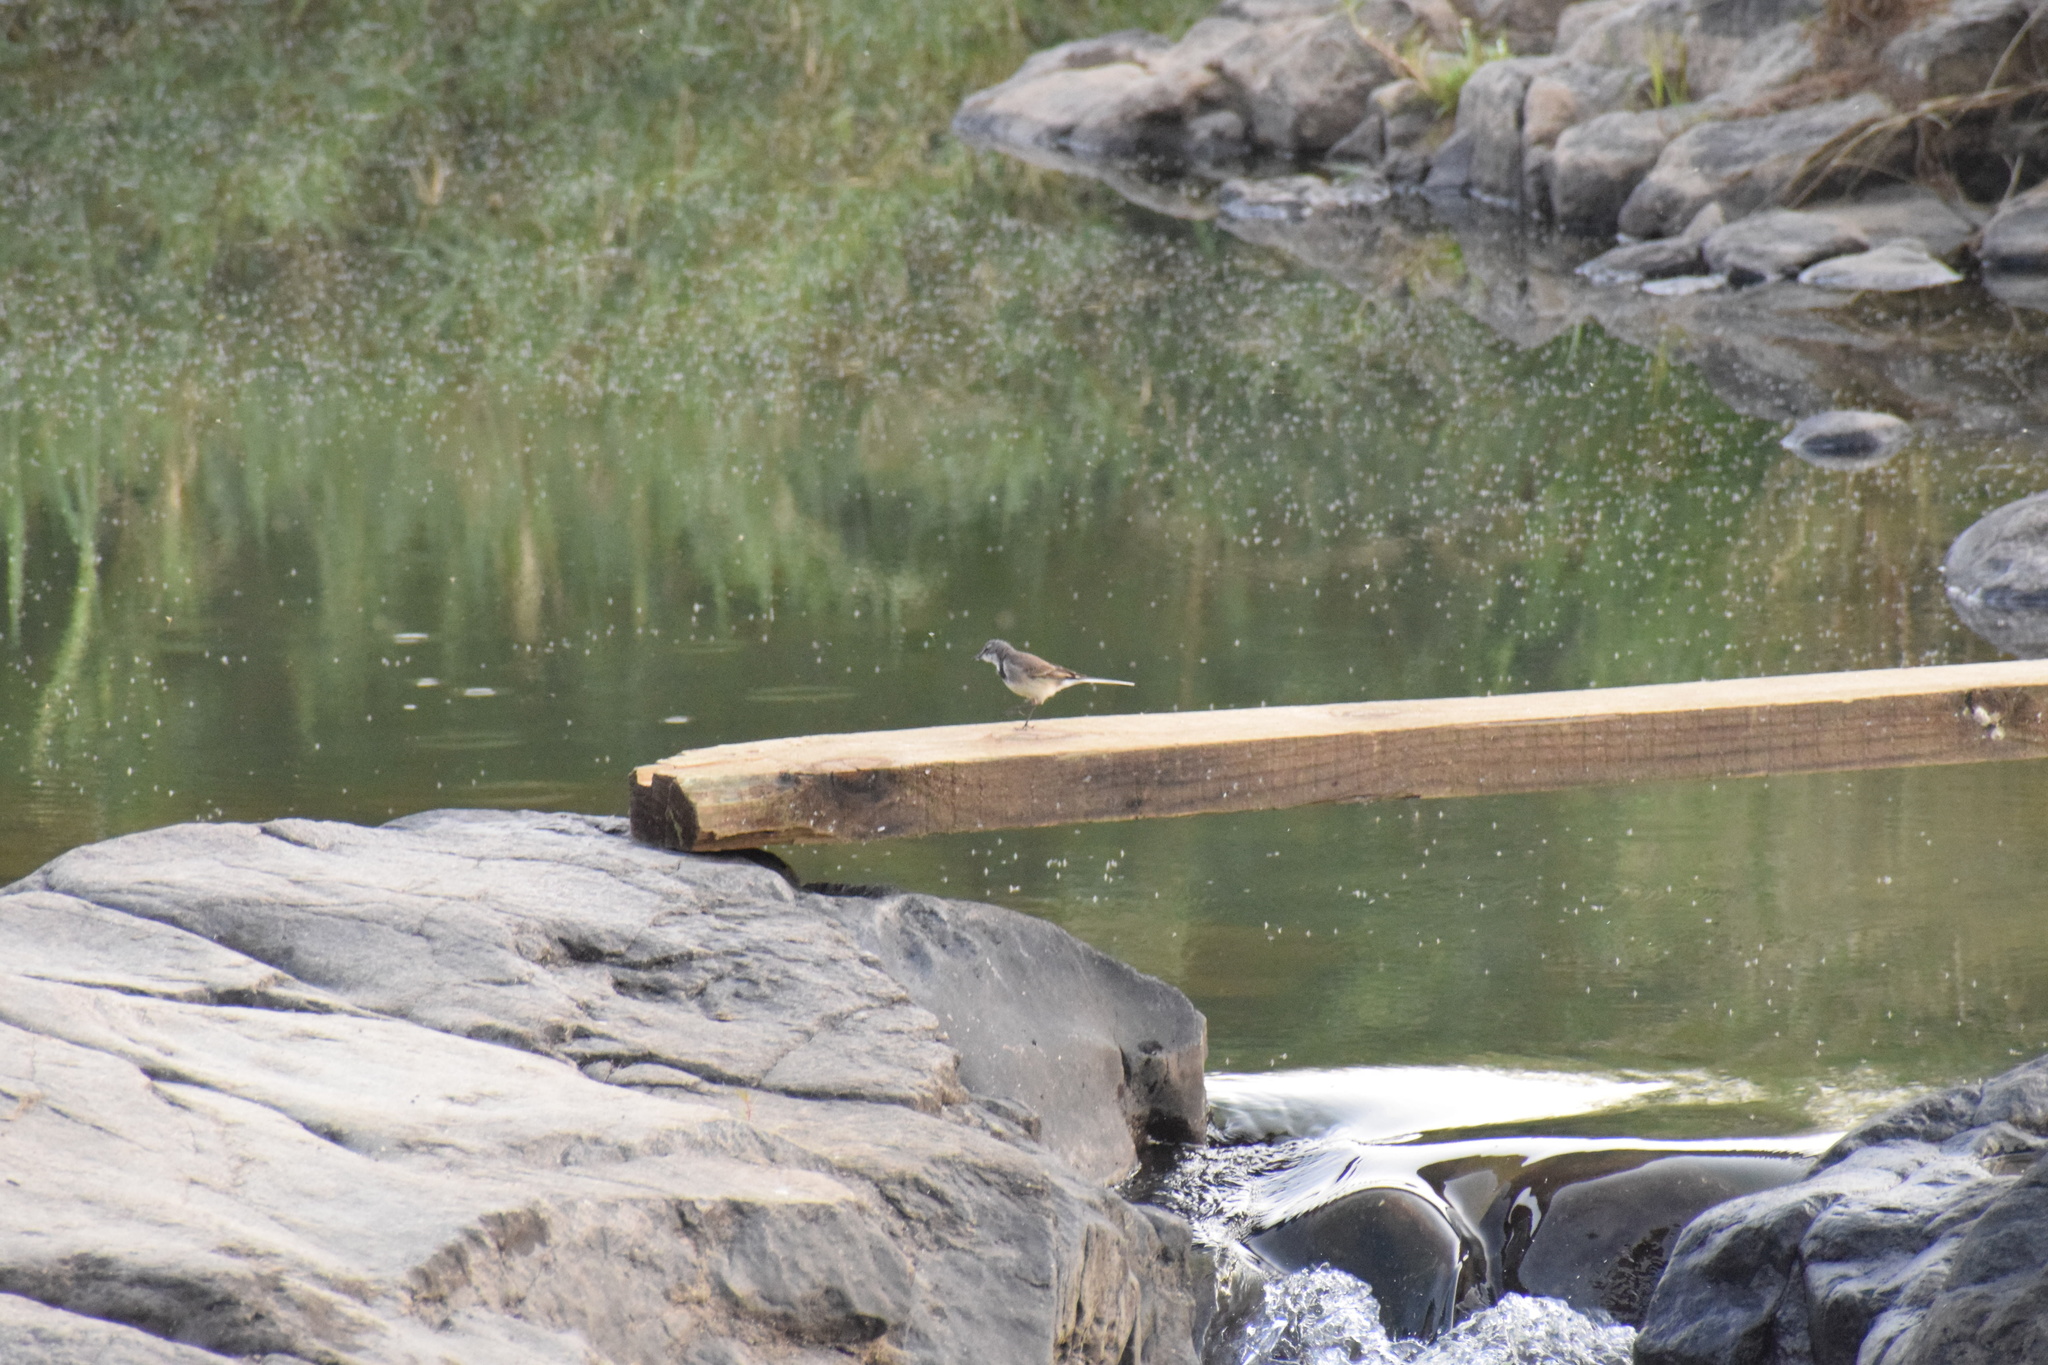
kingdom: Animalia
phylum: Chordata
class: Aves
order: Passeriformes
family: Motacillidae
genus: Motacilla
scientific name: Motacilla capensis
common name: Cape wagtail
